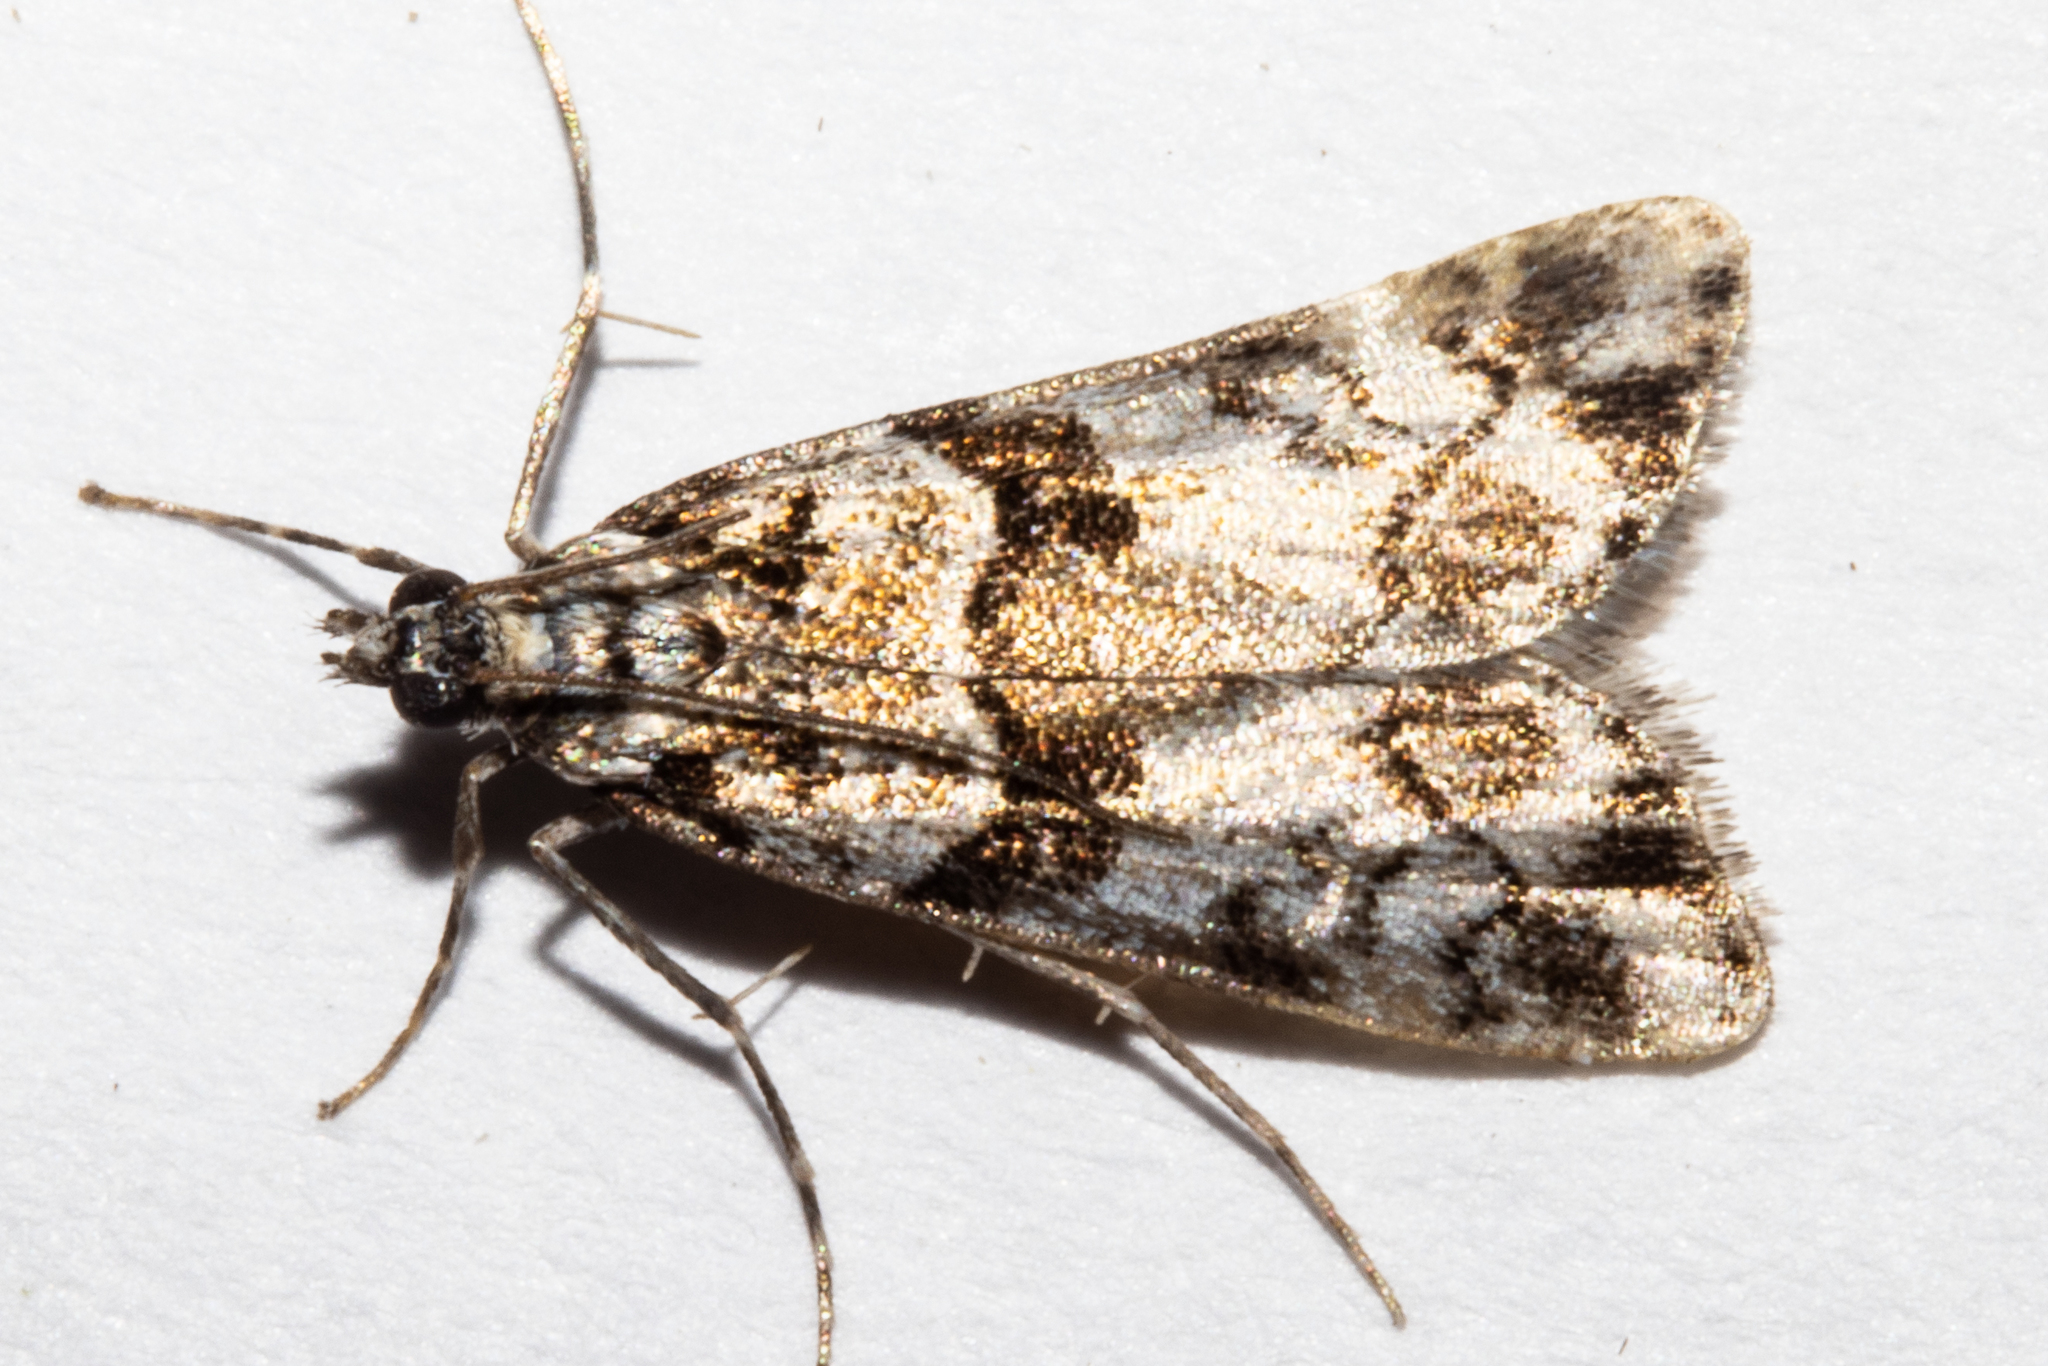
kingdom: Animalia
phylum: Arthropoda
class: Insecta
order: Lepidoptera
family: Crambidae
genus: Eudonia
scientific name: Eudonia torodes
